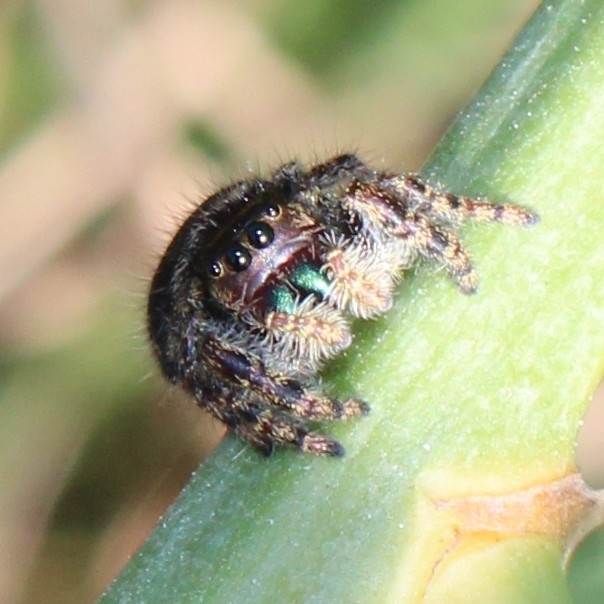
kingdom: Animalia
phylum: Arthropoda
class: Arachnida
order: Araneae
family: Salticidae
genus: Phidippus
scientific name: Phidippus audax
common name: Bold jumper
